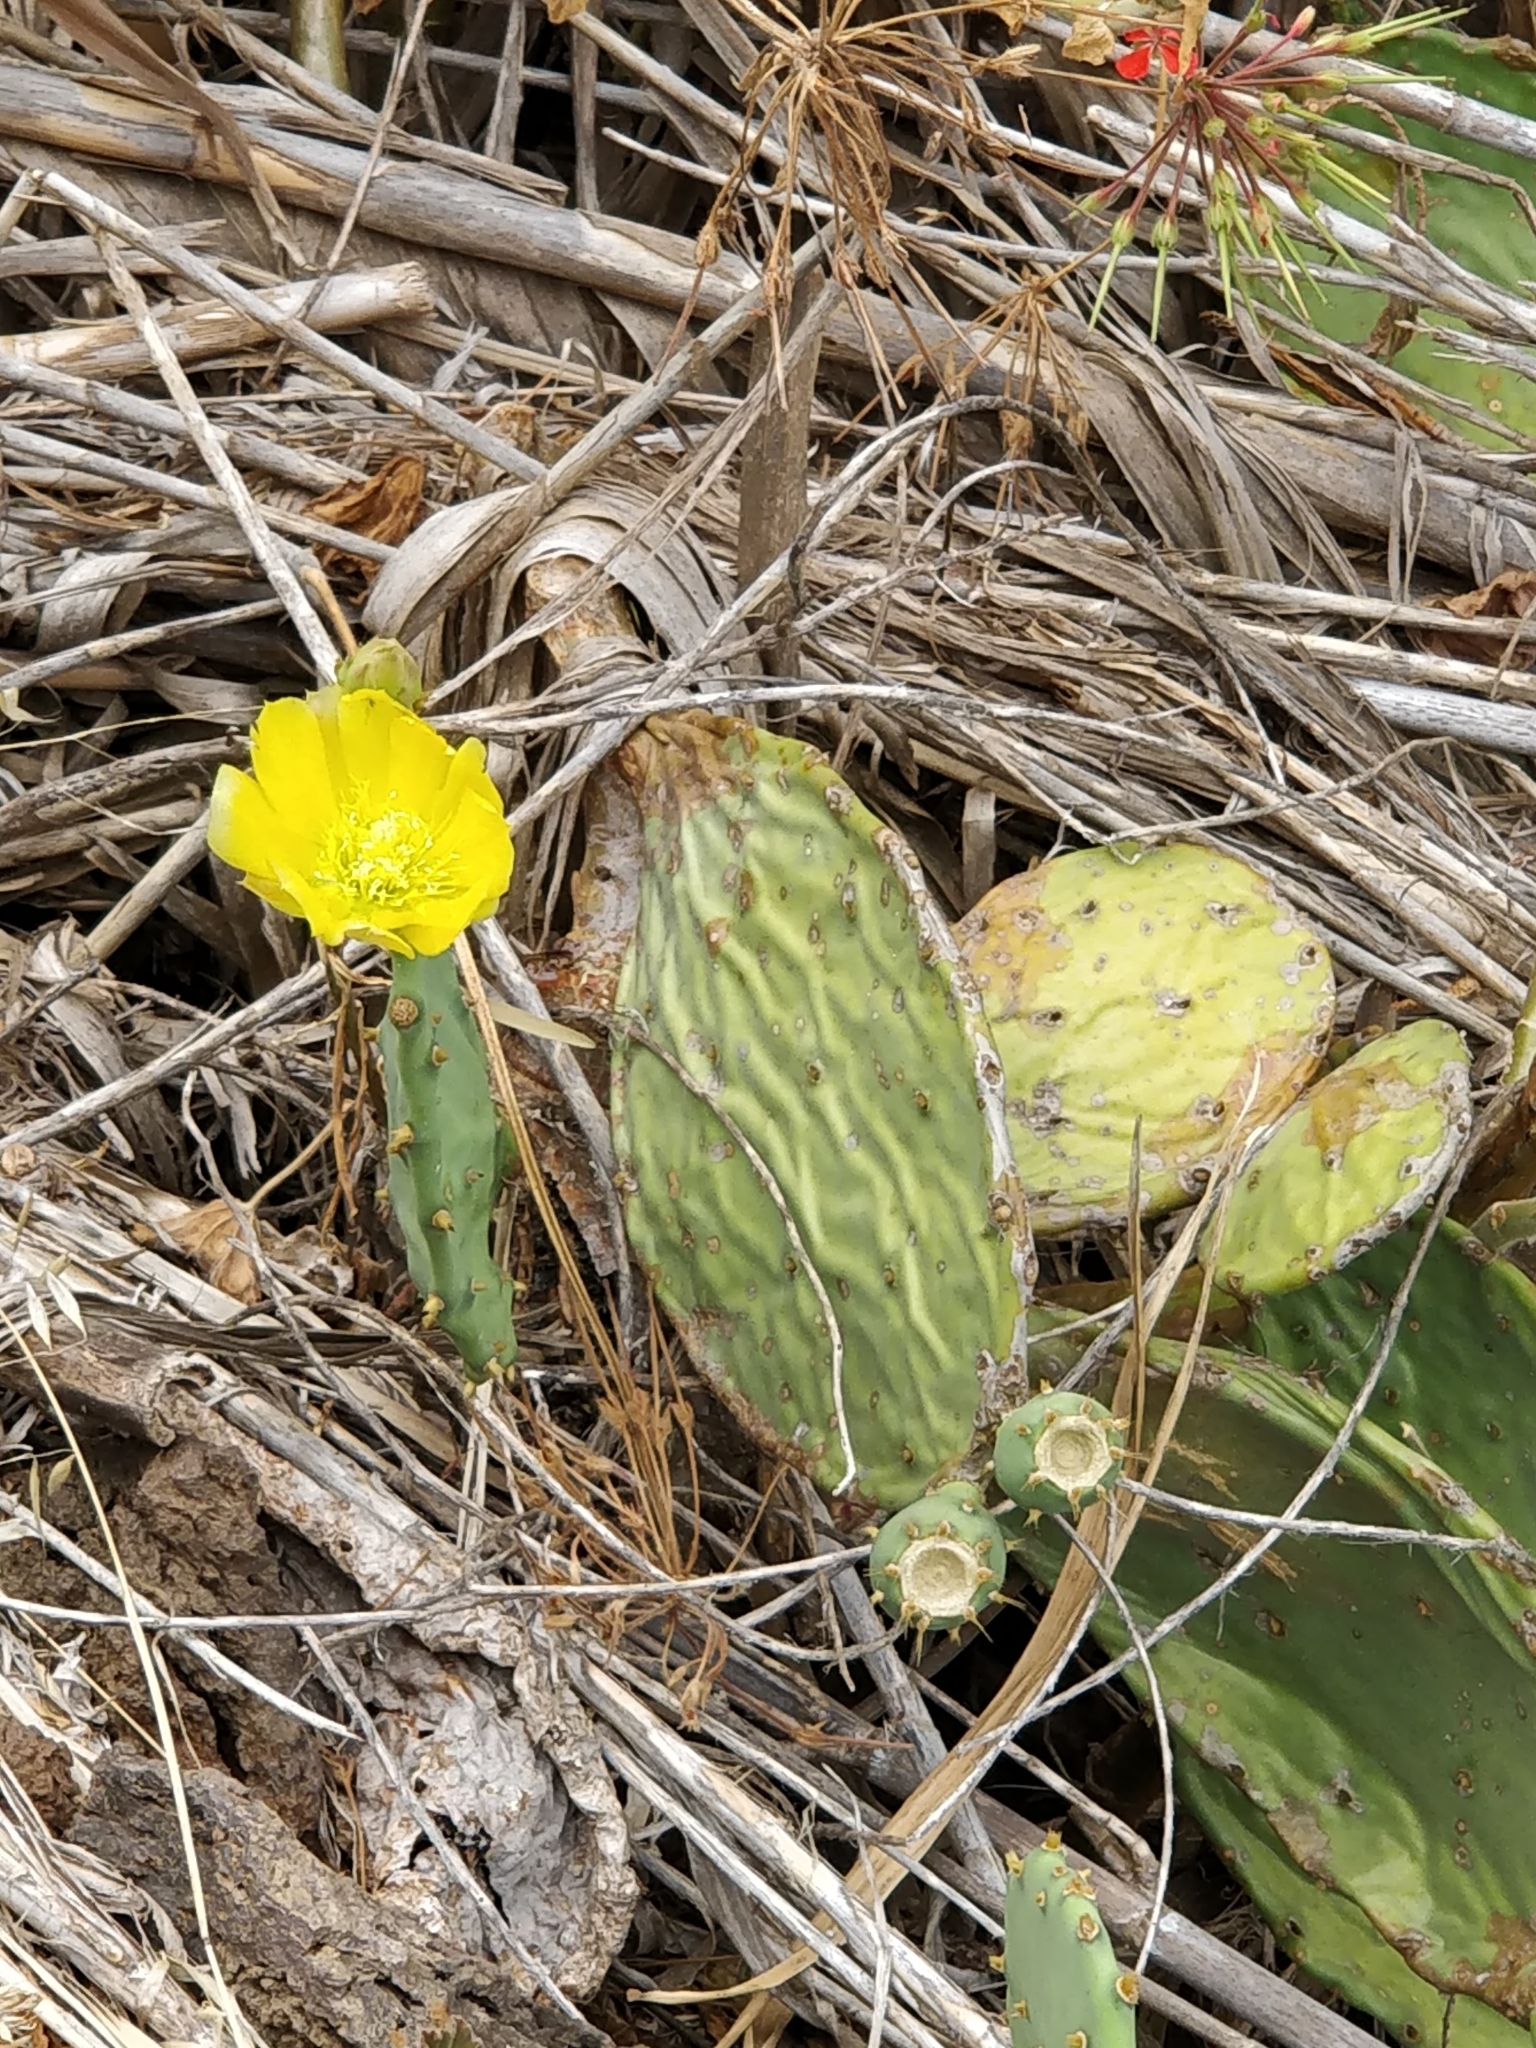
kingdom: Plantae
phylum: Tracheophyta
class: Magnoliopsida
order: Caryophyllales
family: Cactaceae
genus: Opuntia
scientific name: Opuntia ficus-indica
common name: Barbary fig
